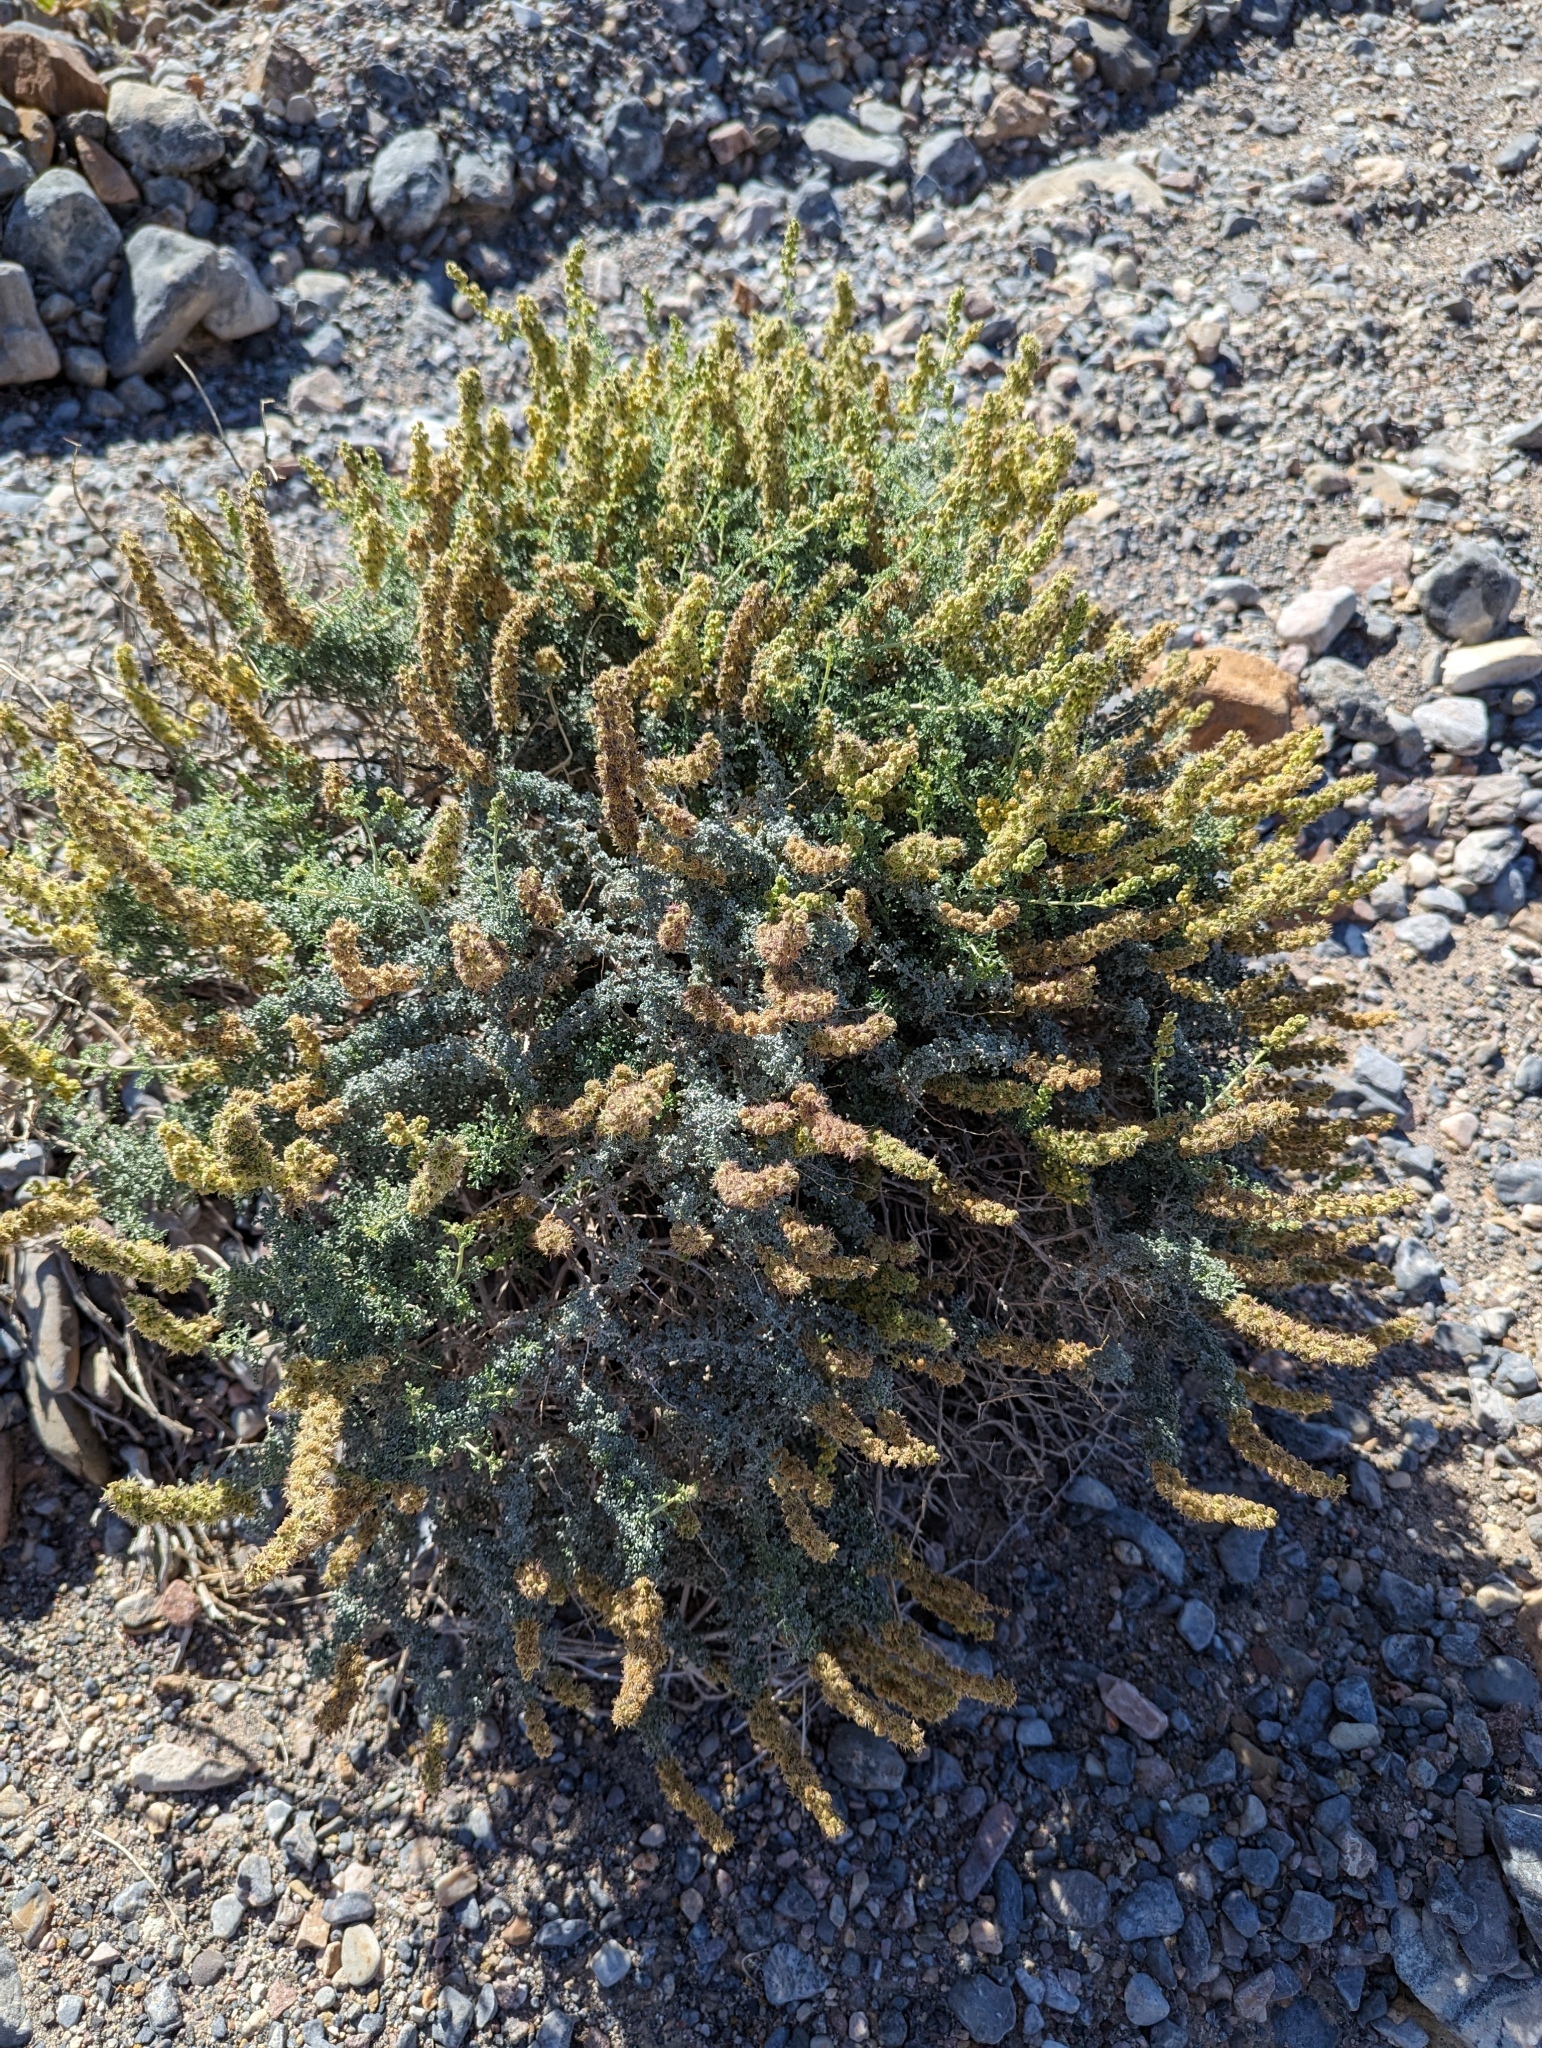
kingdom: Plantae
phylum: Tracheophyta
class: Magnoliopsida
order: Asterales
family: Asteraceae
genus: Ambrosia
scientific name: Ambrosia dumosa
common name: Bur-sage
